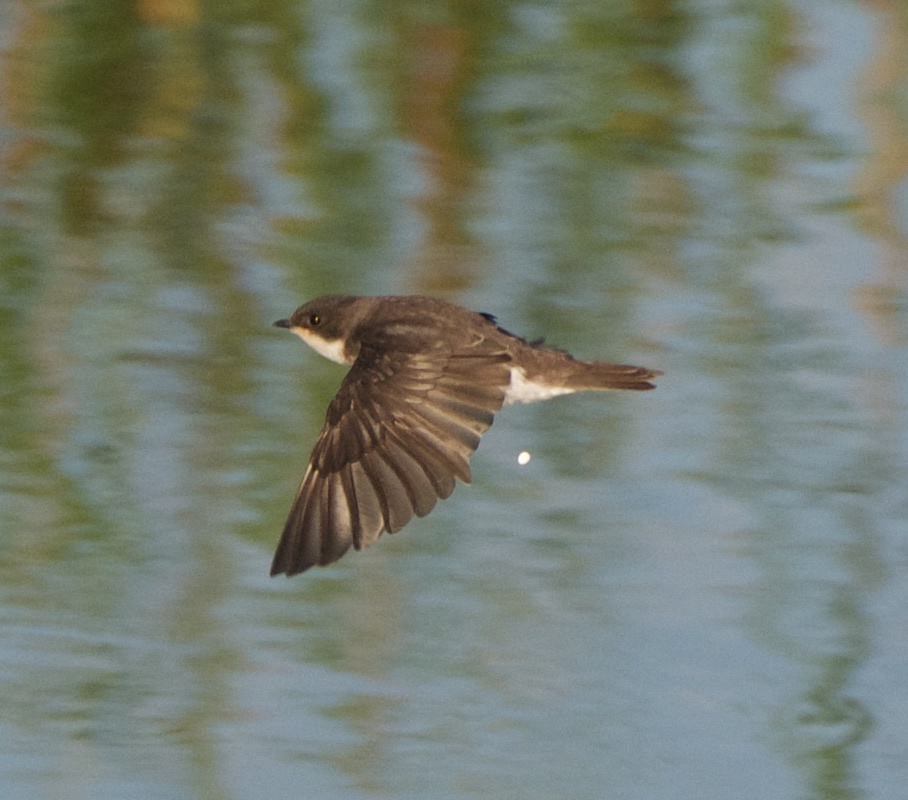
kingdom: Animalia
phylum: Chordata
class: Aves
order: Passeriformes
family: Hirundinidae
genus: Stelgidopteryx
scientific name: Stelgidopteryx serripennis
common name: Northern rough-winged swallow
